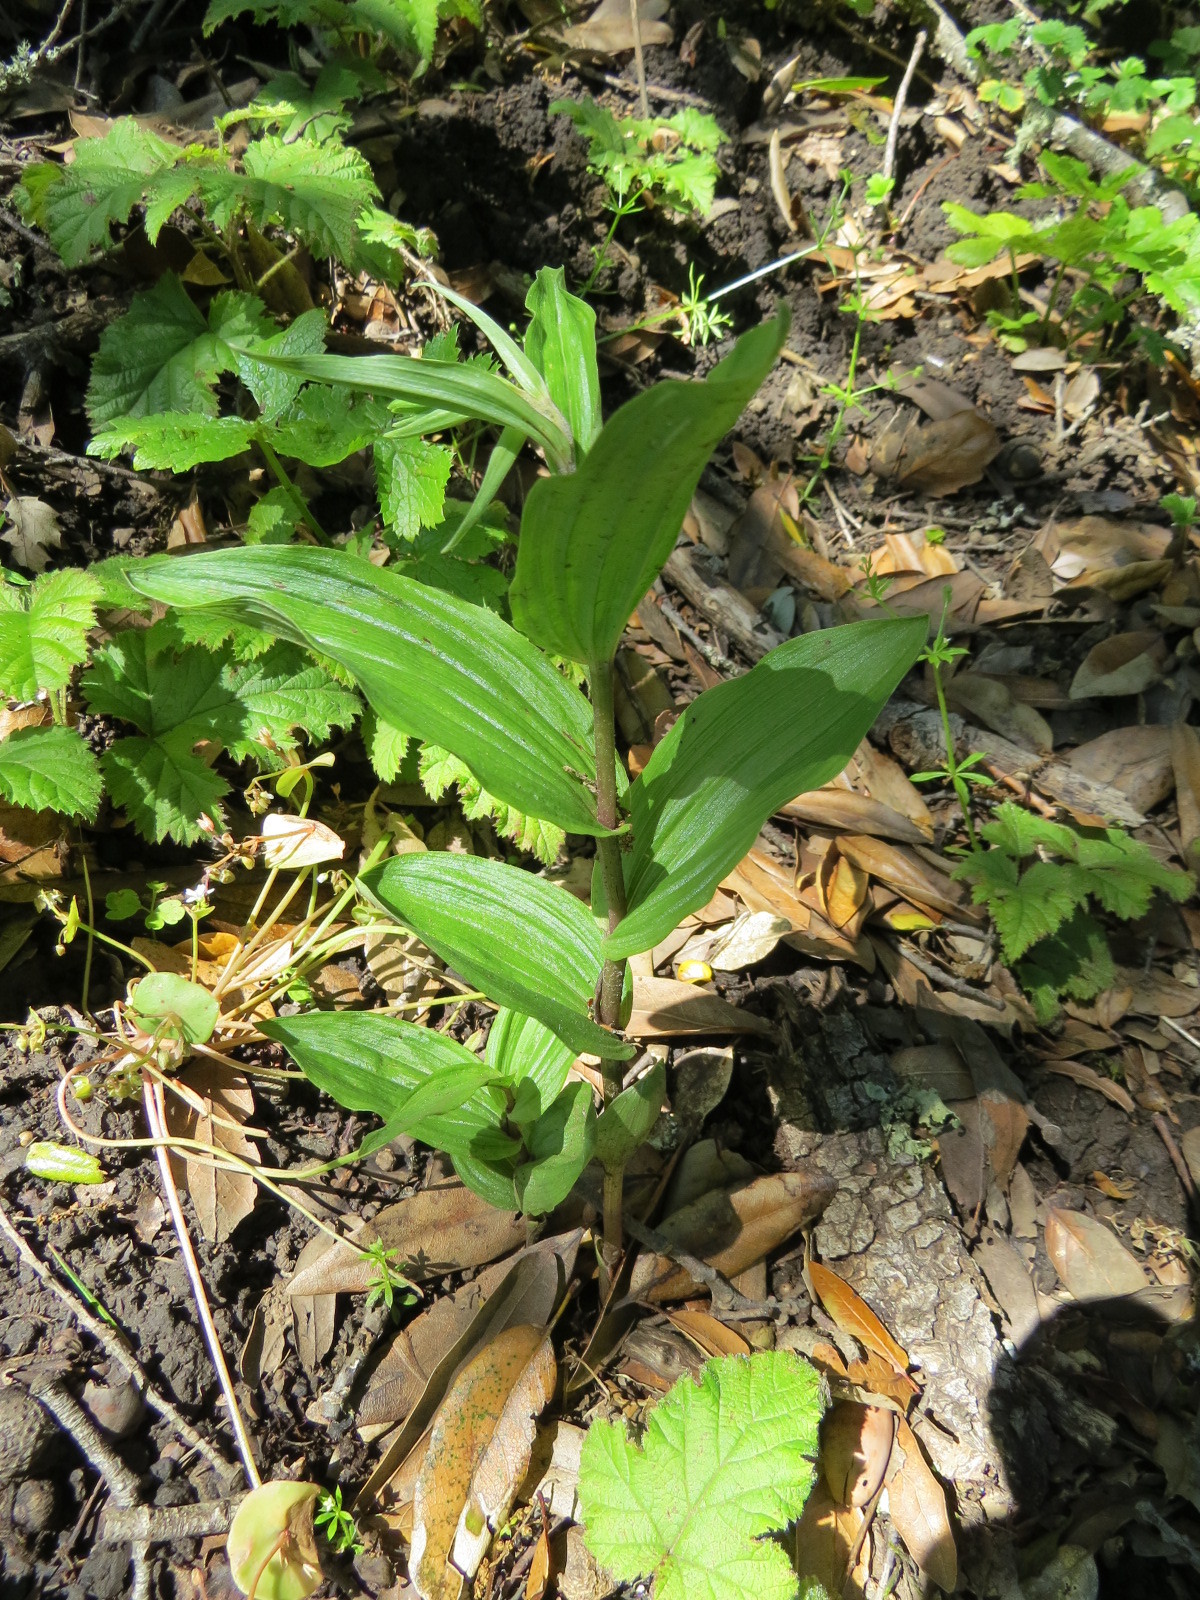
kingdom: Plantae
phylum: Tracheophyta
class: Liliopsida
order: Asparagales
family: Orchidaceae
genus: Epipactis
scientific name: Epipactis helleborine
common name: Broad-leaved helleborine
